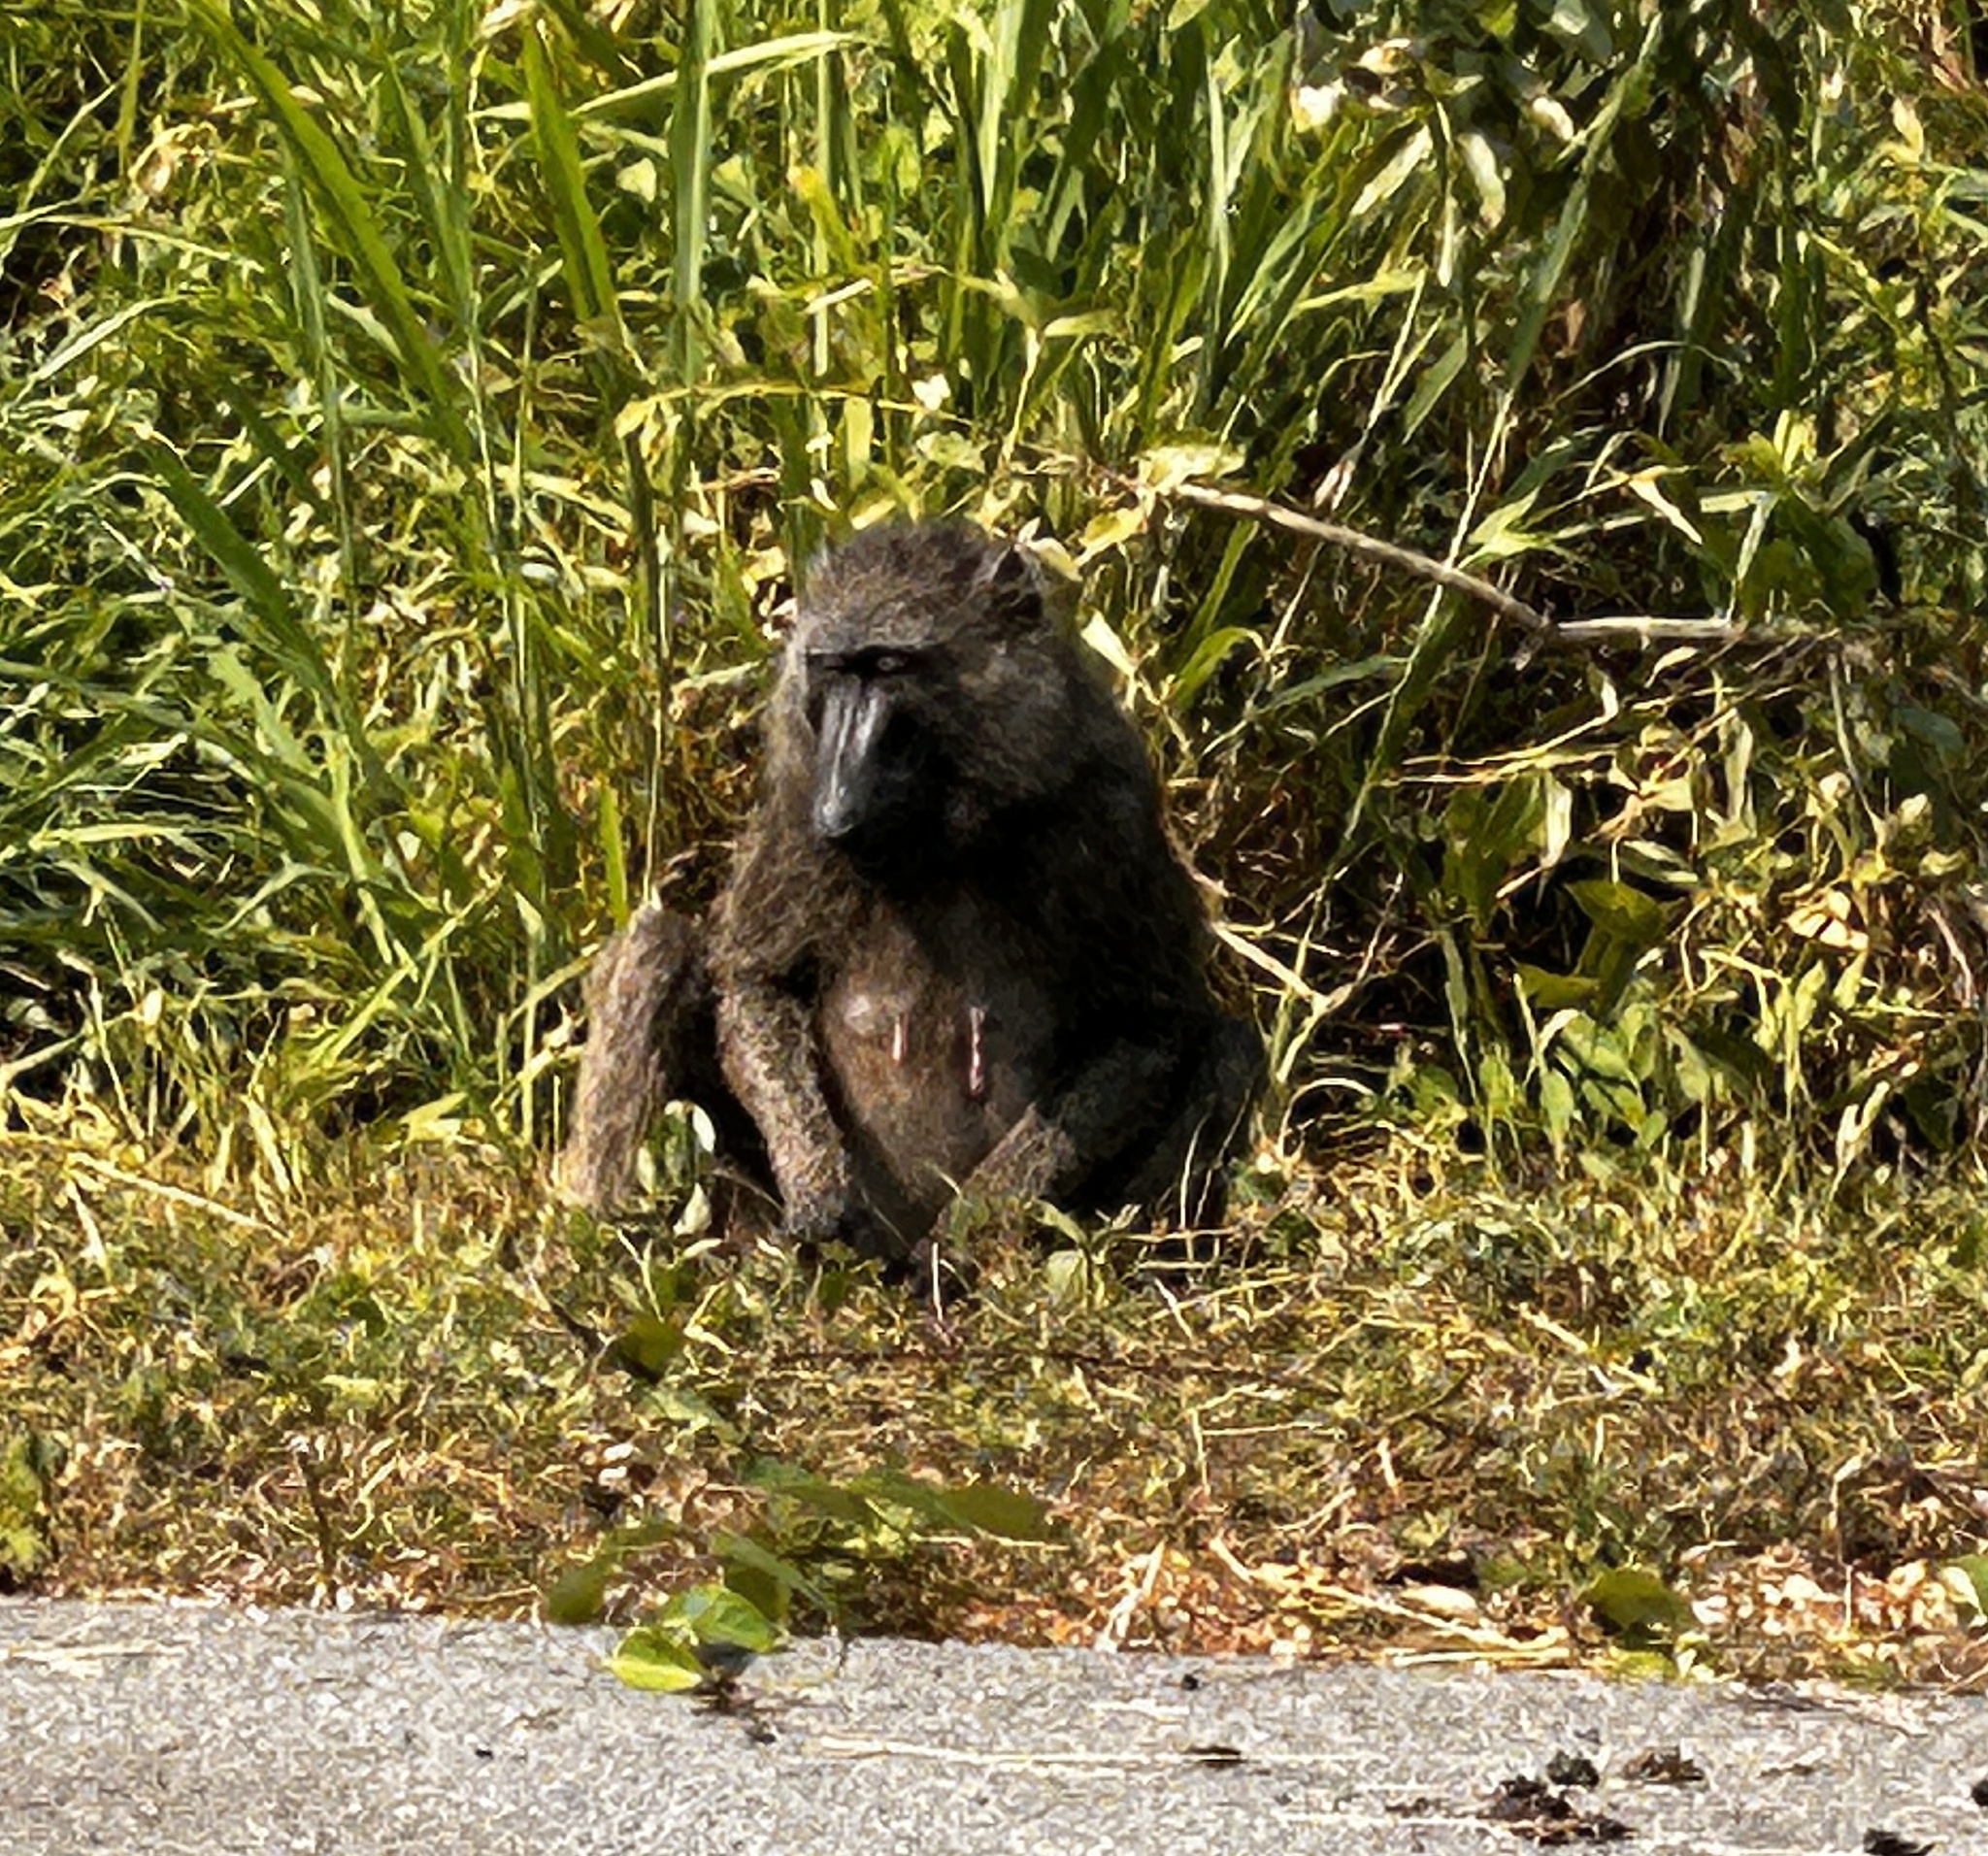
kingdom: Animalia
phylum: Chordata
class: Mammalia
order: Primates
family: Cercopithecidae
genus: Papio
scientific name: Papio anubis
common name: Olive baboon
